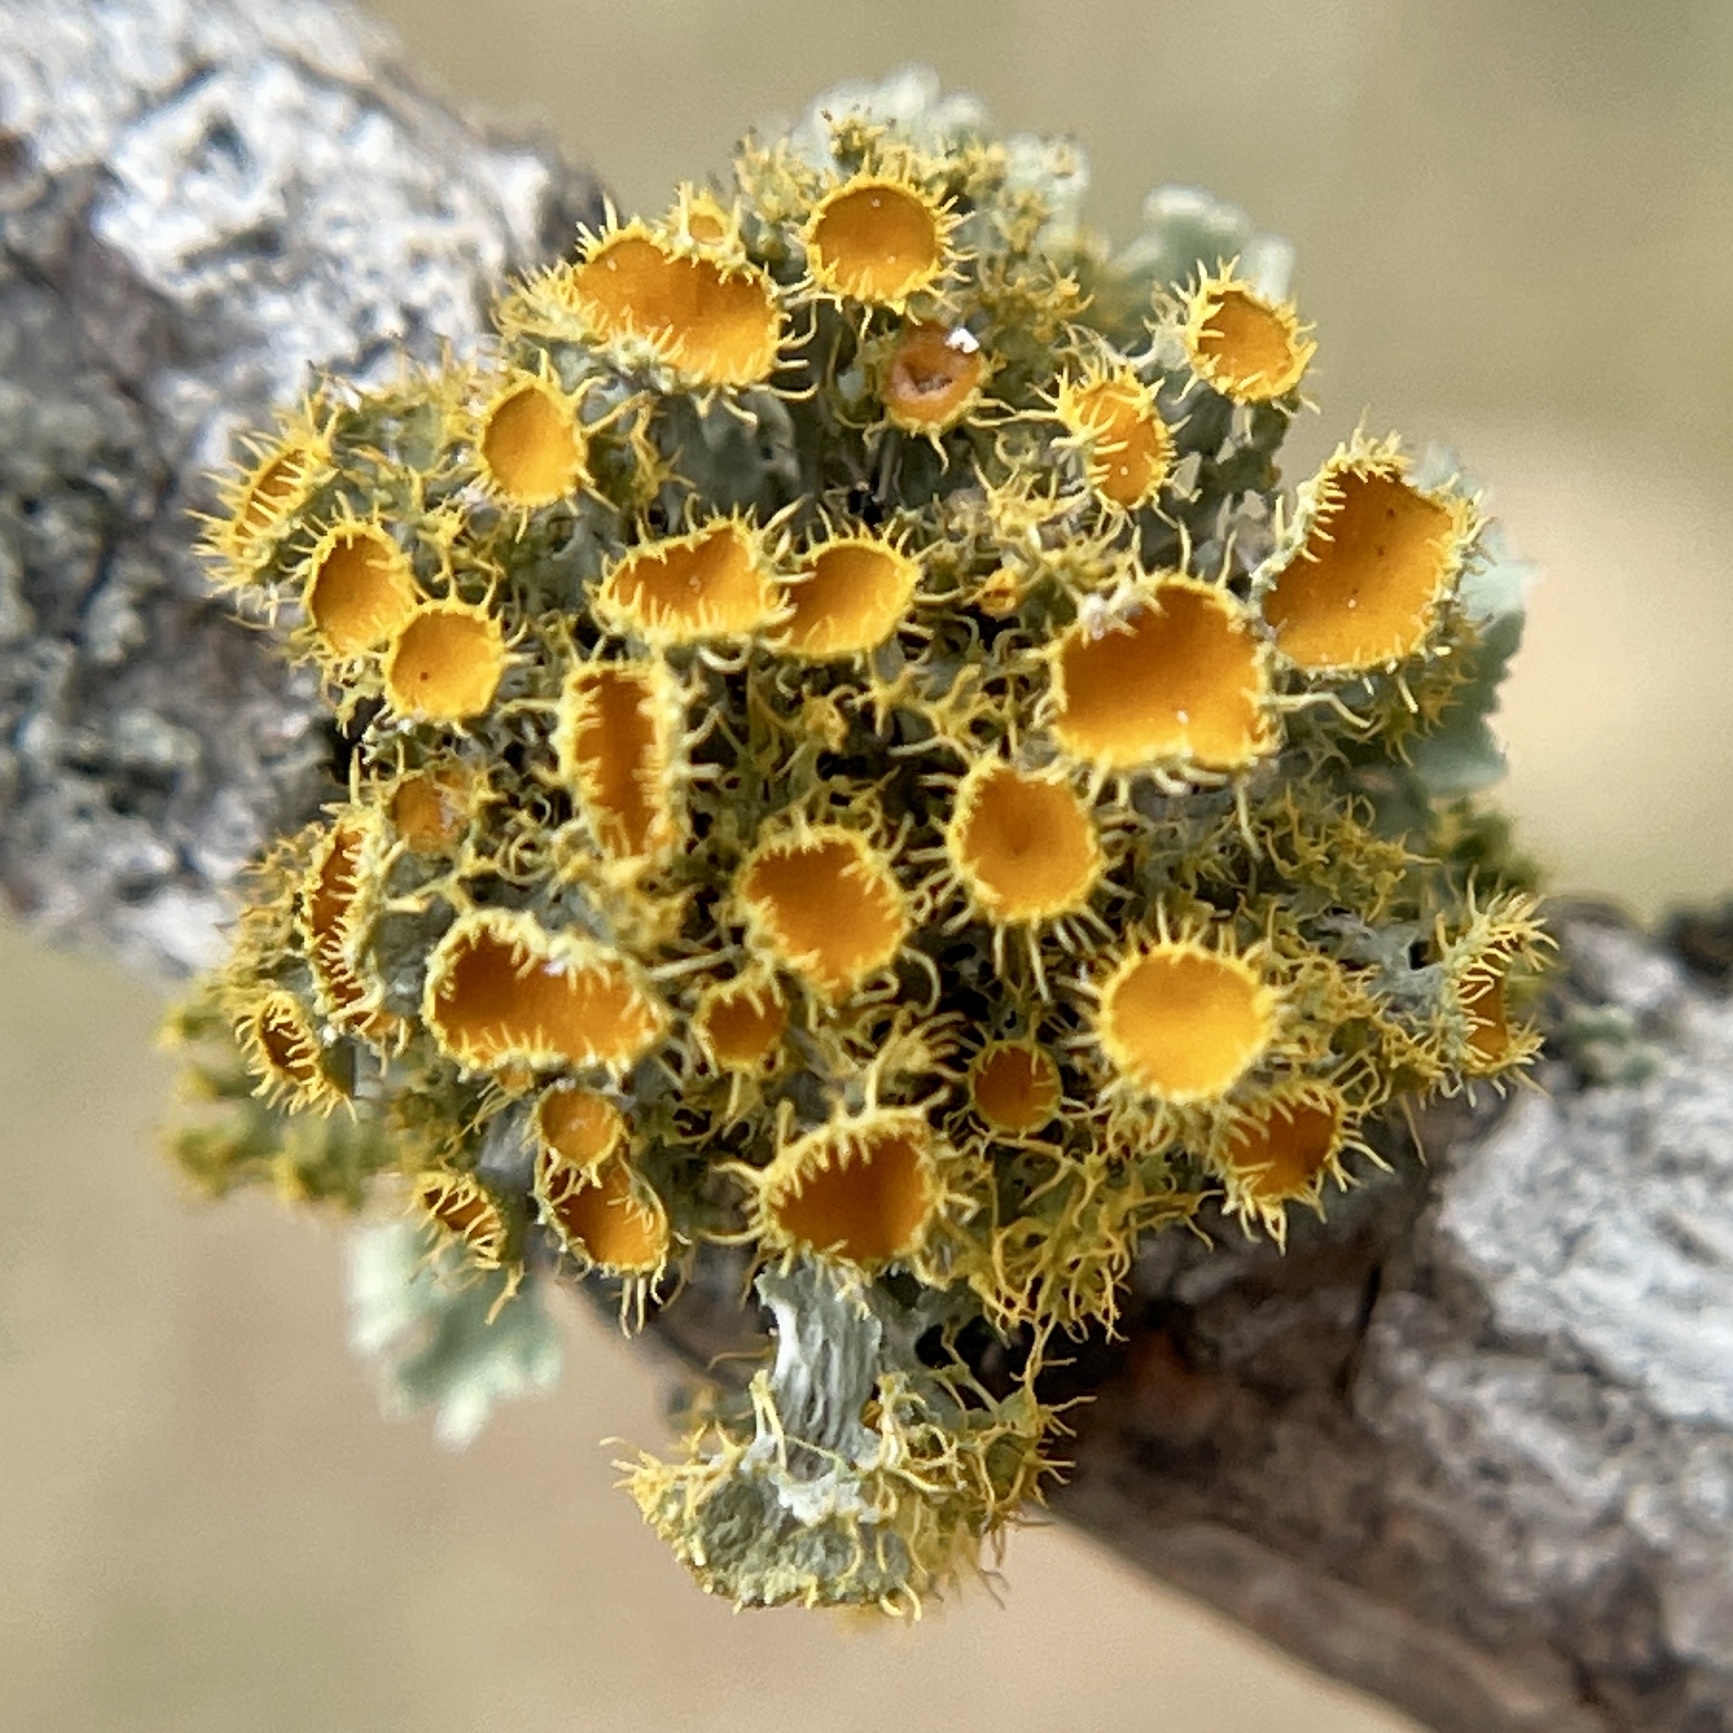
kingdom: Fungi
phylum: Ascomycota
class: Lecanoromycetes
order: Teloschistales
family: Teloschistaceae
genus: Niorma
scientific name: Niorma chrysophthalma
